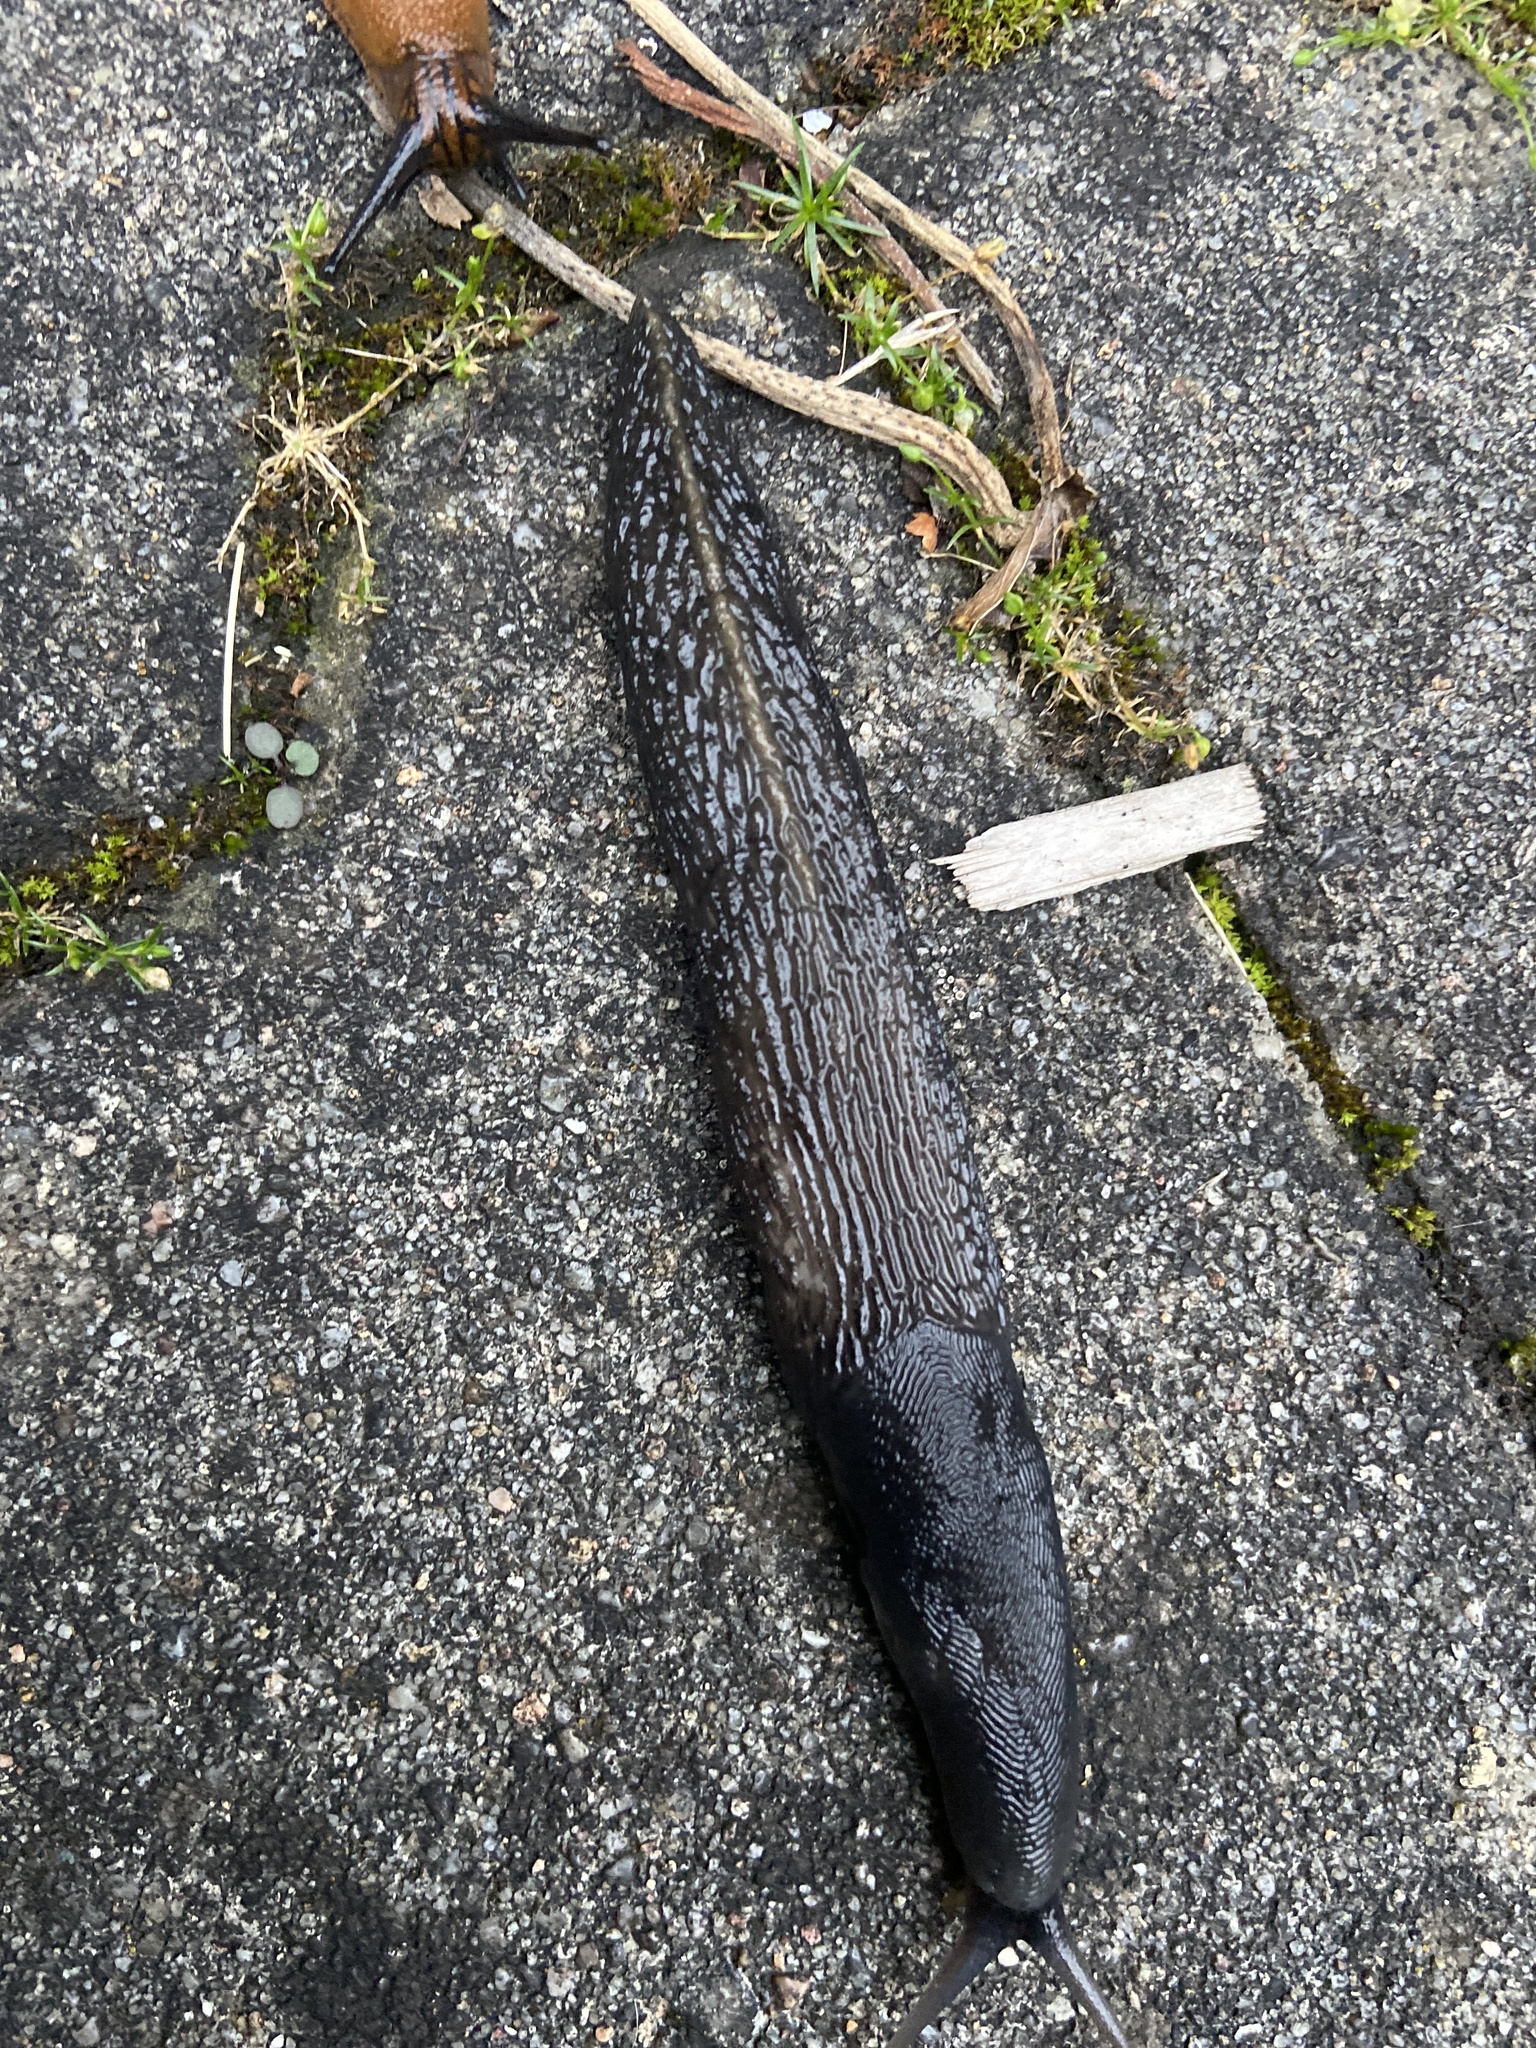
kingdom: Animalia
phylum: Mollusca
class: Gastropoda
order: Stylommatophora
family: Limacidae
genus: Limax
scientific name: Limax cinereoniger
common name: Ash-black slug
